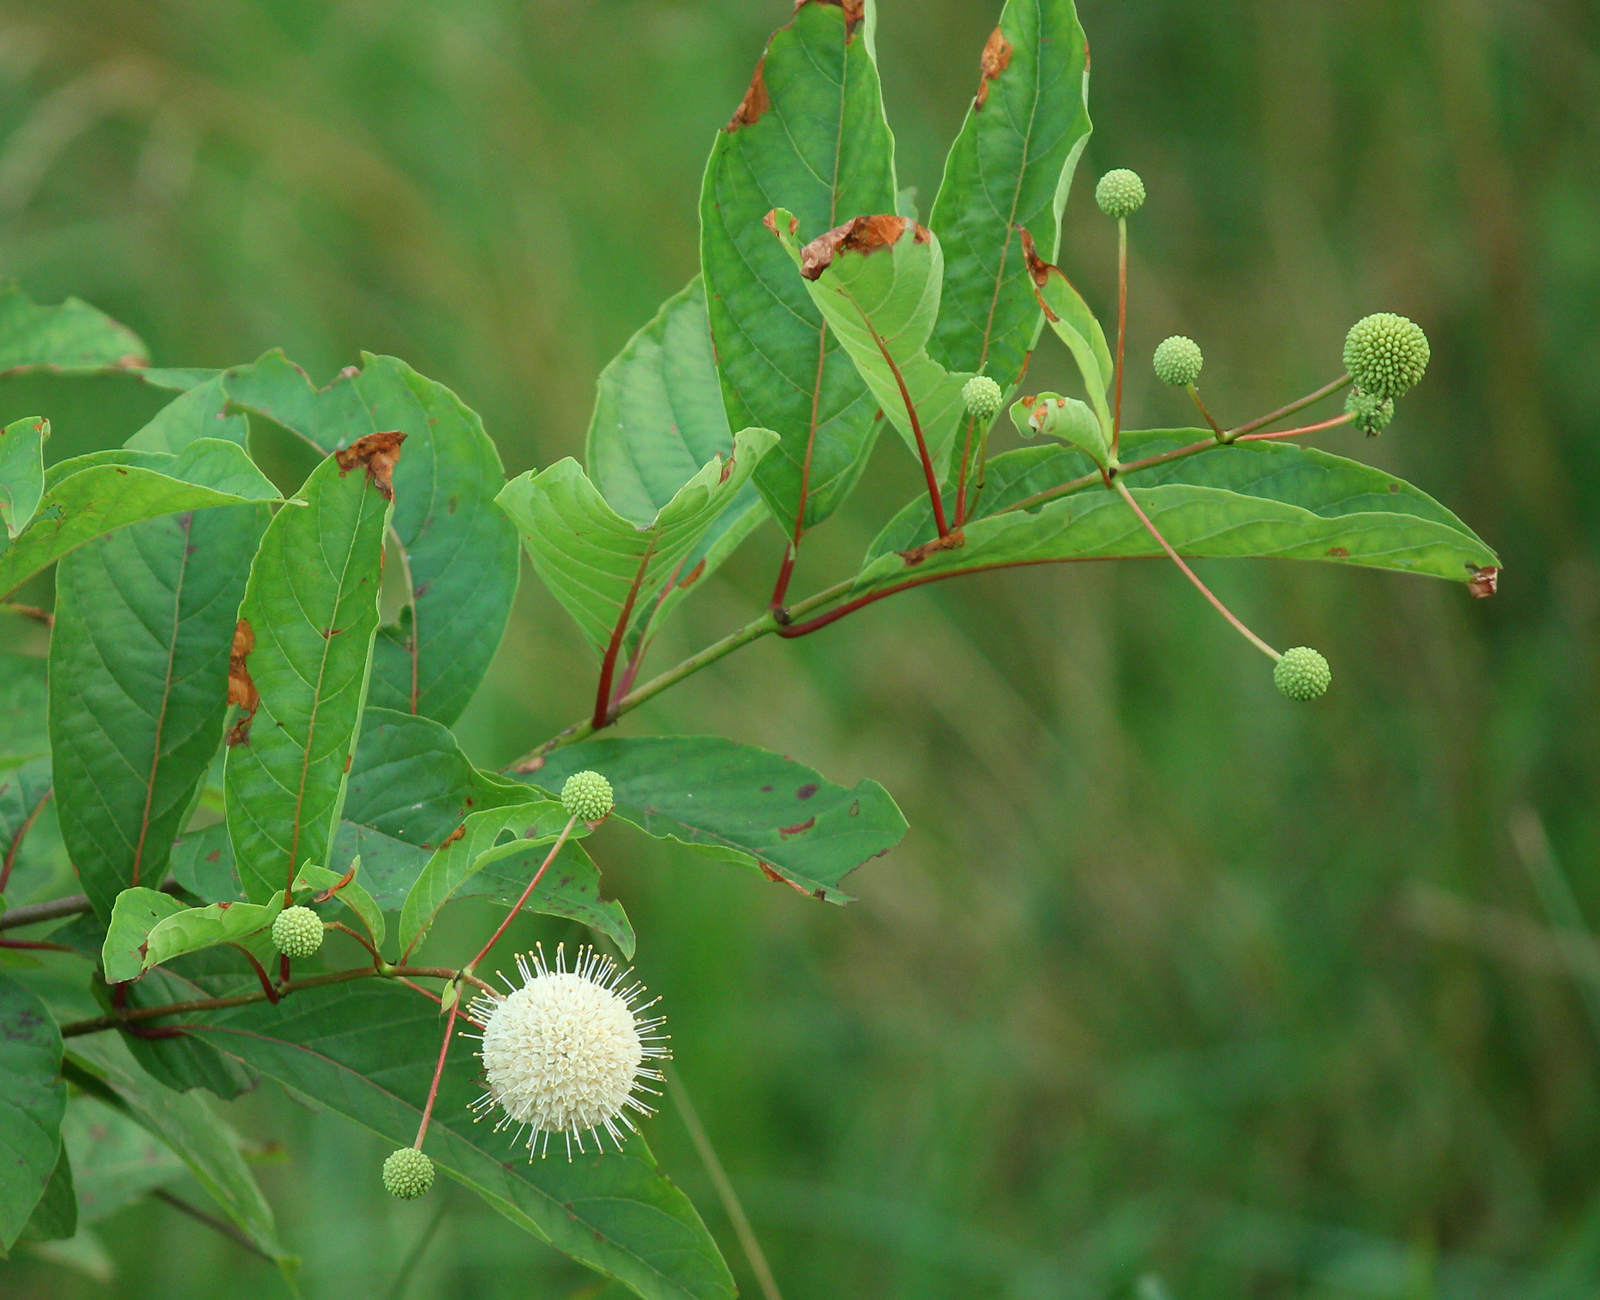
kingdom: Plantae
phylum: Tracheophyta
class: Magnoliopsida
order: Gentianales
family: Rubiaceae
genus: Cephalanthus
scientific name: Cephalanthus occidentalis
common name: Button-willow
